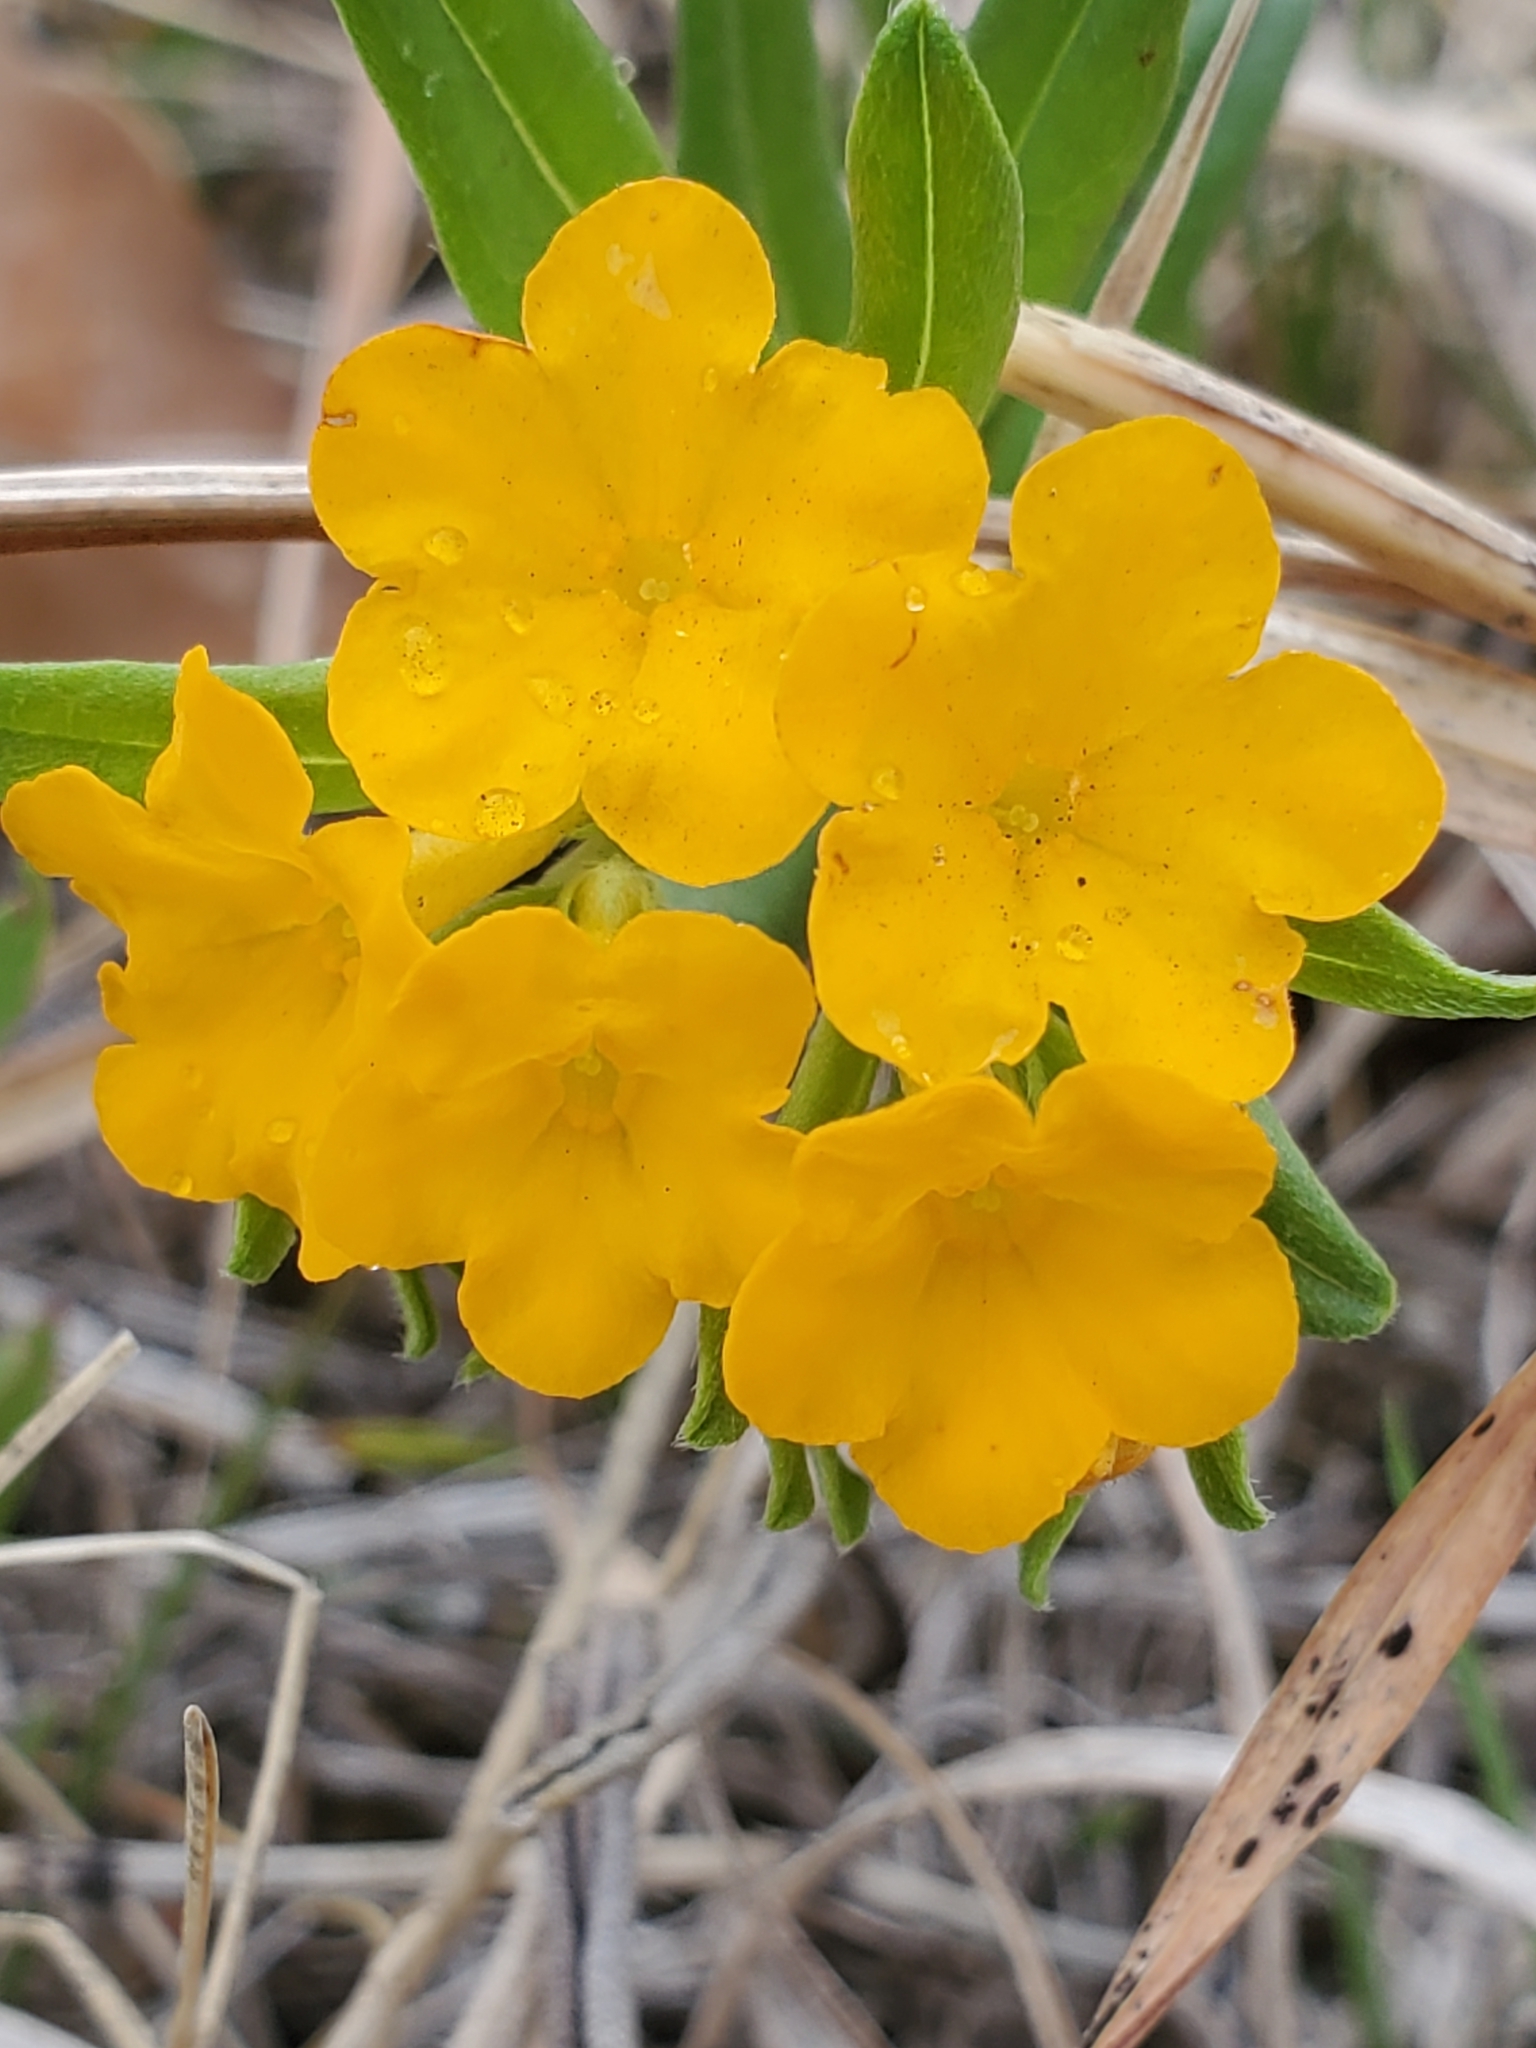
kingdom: Plantae
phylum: Tracheophyta
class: Magnoliopsida
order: Boraginales
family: Boraginaceae
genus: Lithospermum
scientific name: Lithospermum canescens
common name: Hoary puccoon
